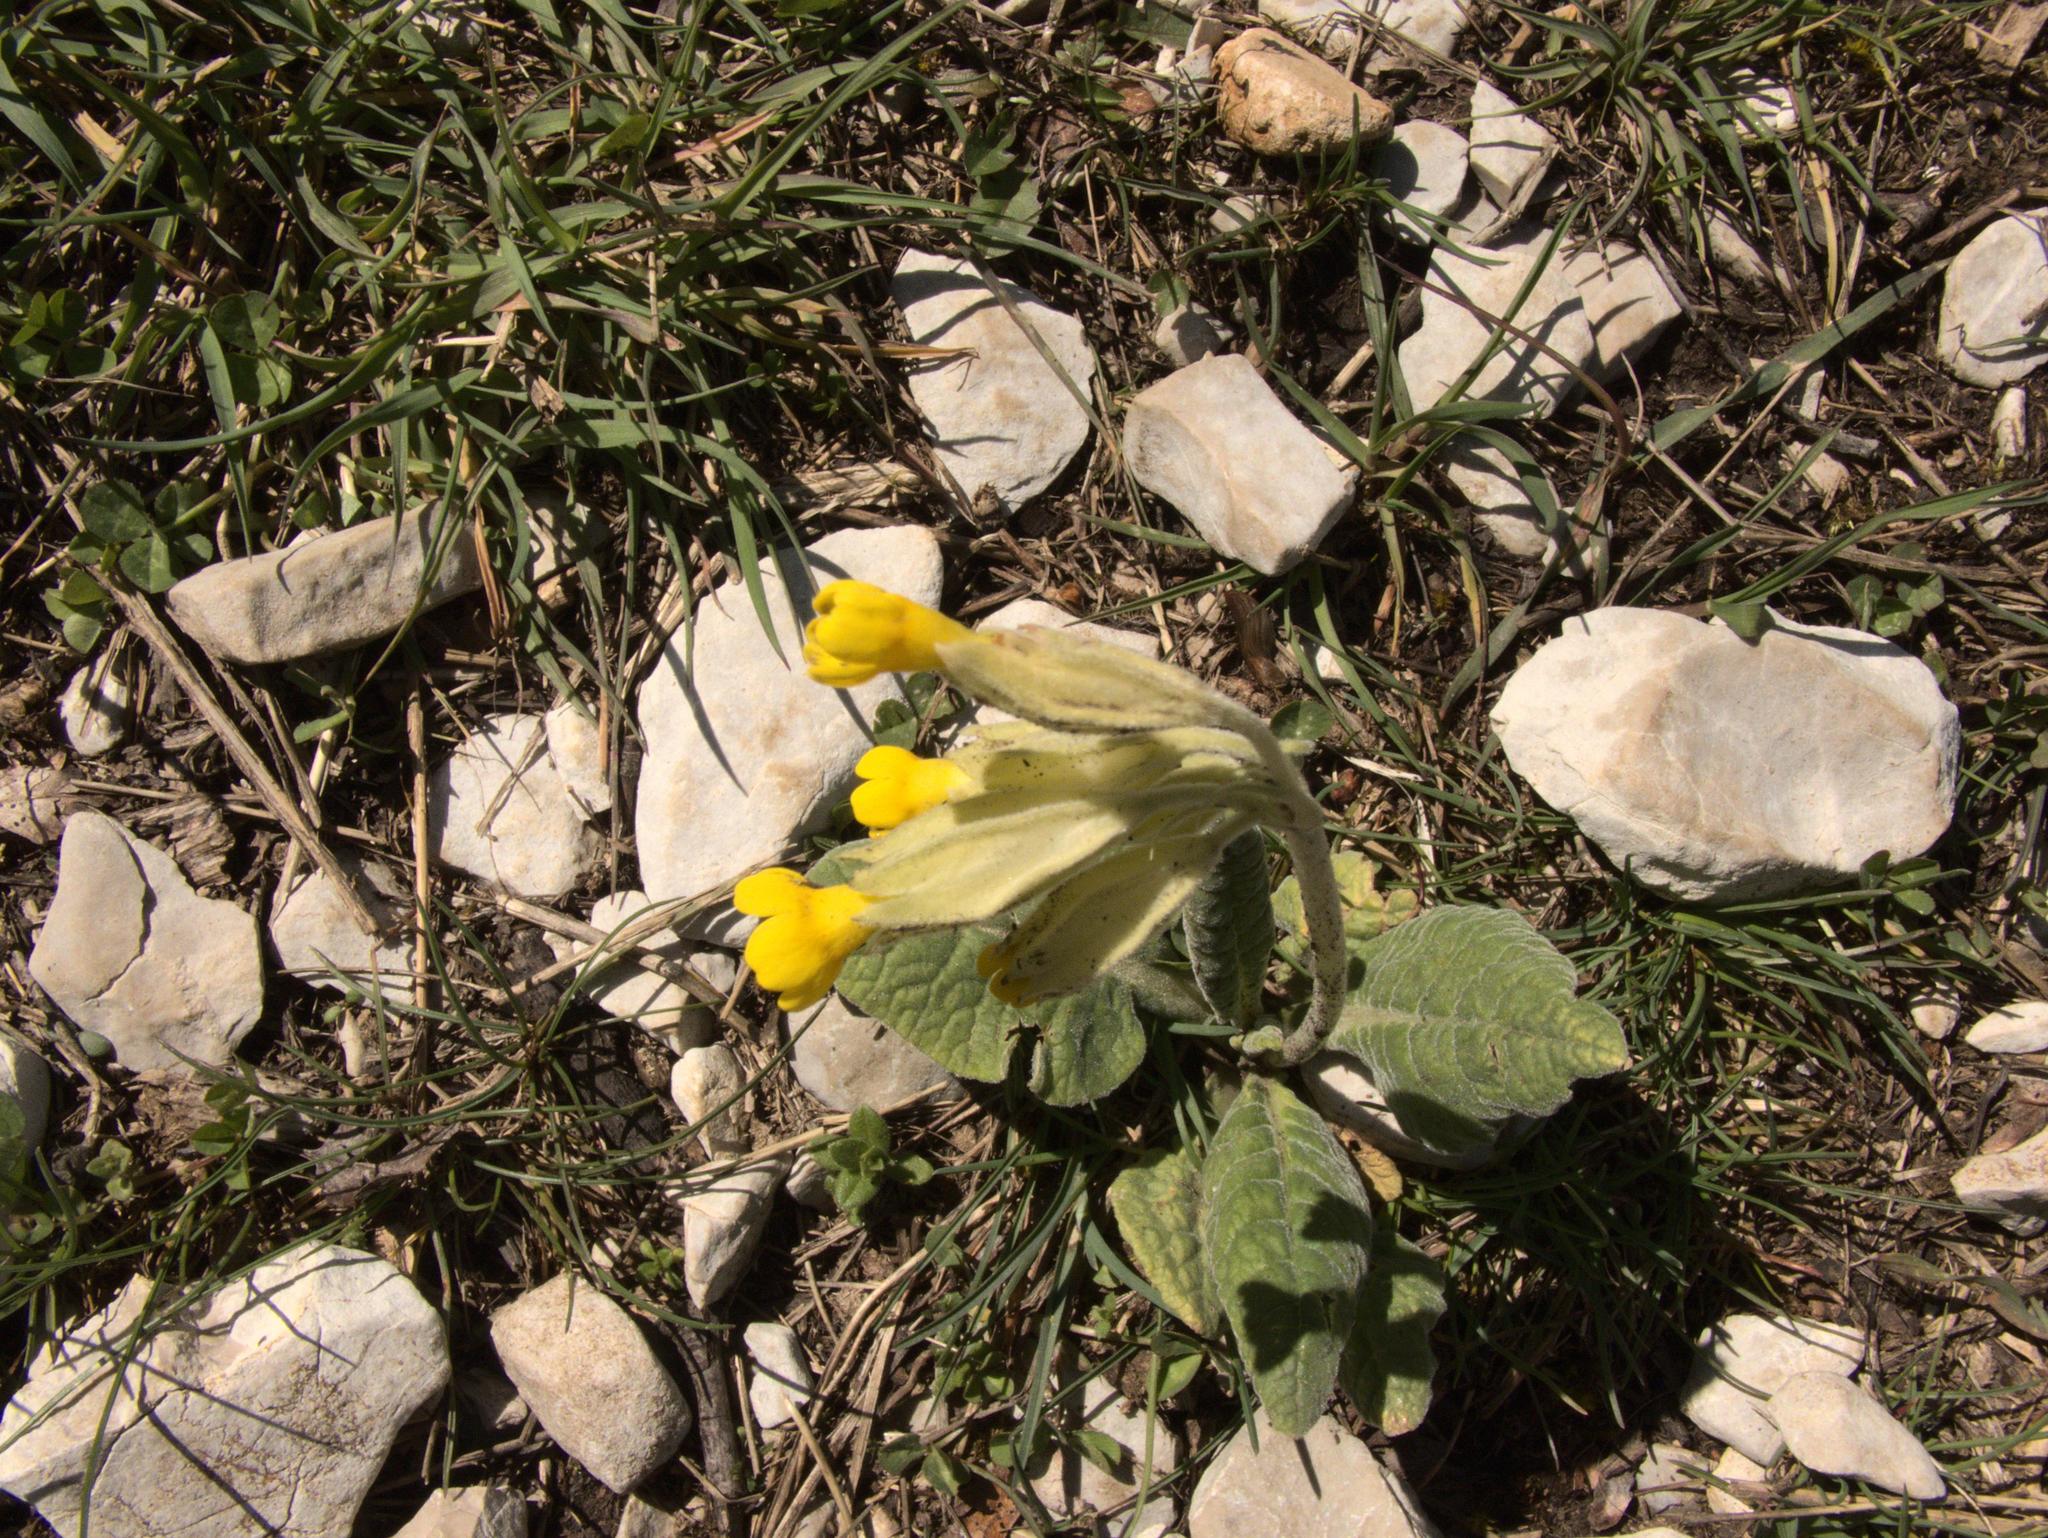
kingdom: Plantae
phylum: Tracheophyta
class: Magnoliopsida
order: Ericales
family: Primulaceae
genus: Primula
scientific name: Primula veris
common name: Cowslip
